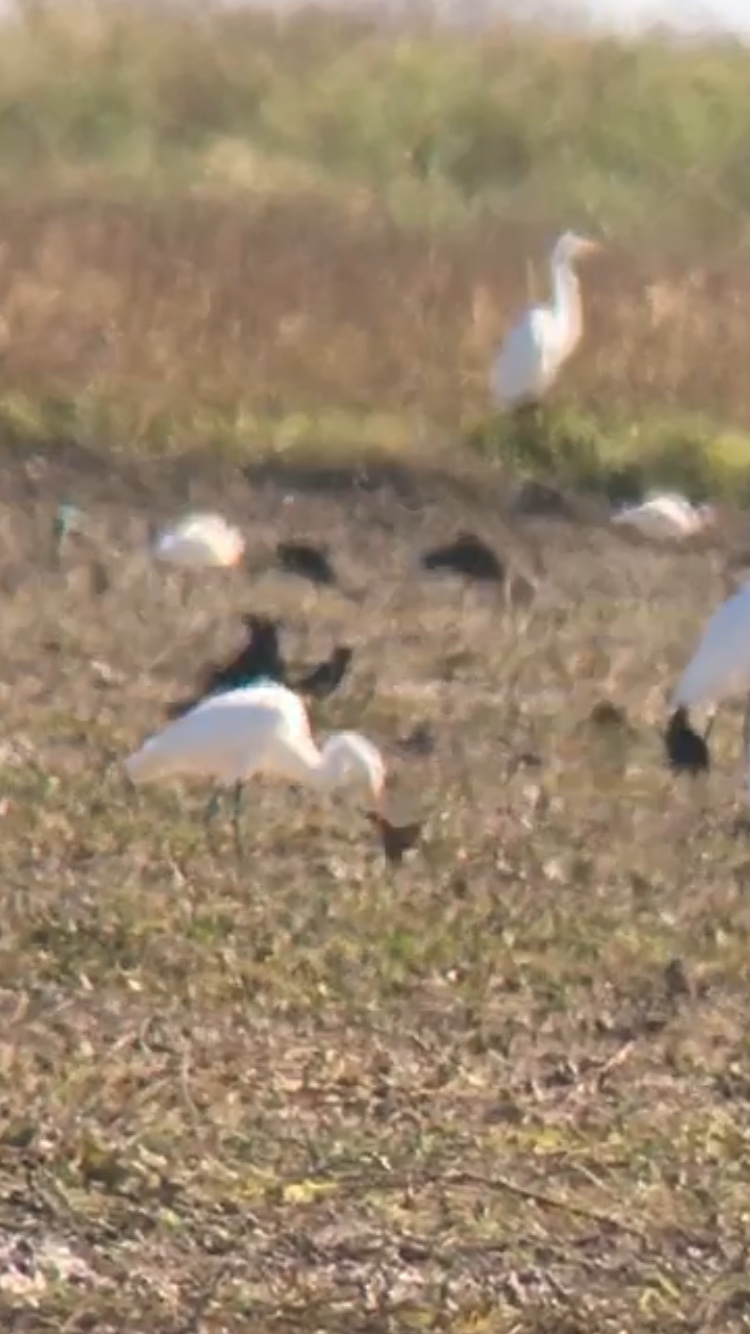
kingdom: Animalia
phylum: Chordata
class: Aves
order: Gruiformes
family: Rallidae
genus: Coturnicops
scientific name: Coturnicops noveboracensis
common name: Yellow rail
